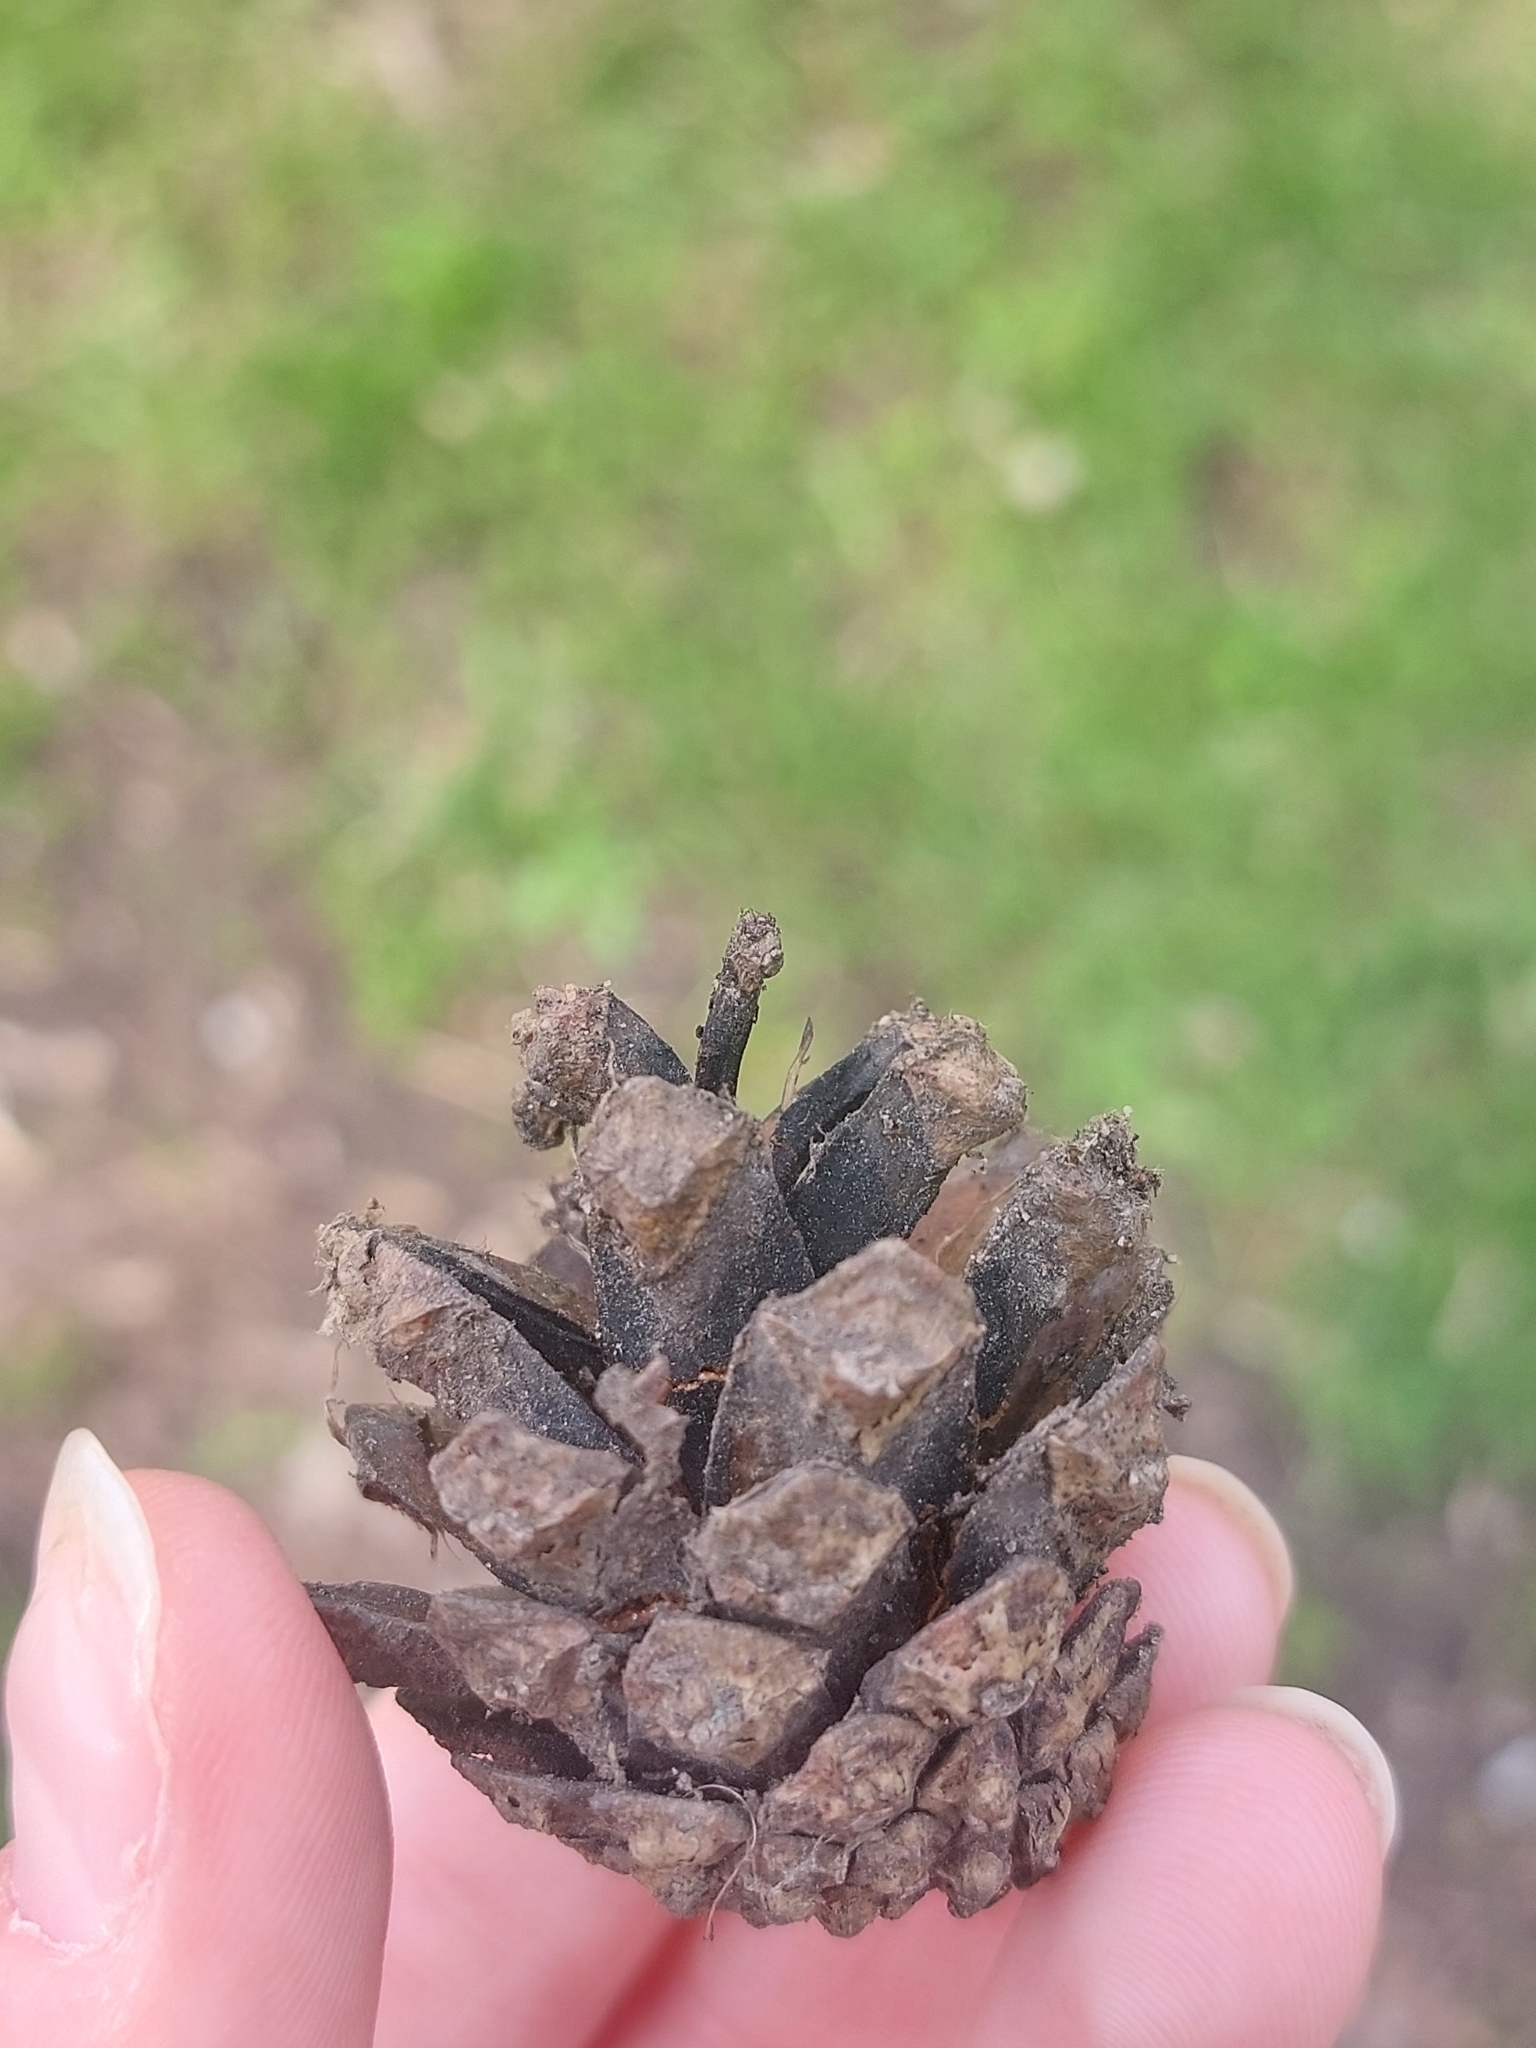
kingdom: Plantae
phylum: Tracheophyta
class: Pinopsida
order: Pinales
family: Pinaceae
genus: Pinus
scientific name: Pinus sylvestris
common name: Scots pine
